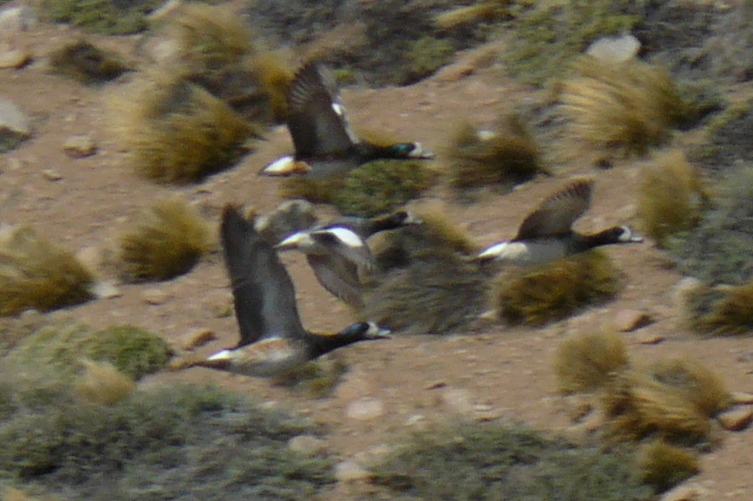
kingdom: Animalia
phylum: Chordata
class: Aves
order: Anseriformes
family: Anatidae
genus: Mareca
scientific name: Mareca sibilatrix
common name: Chiloe wigeon
